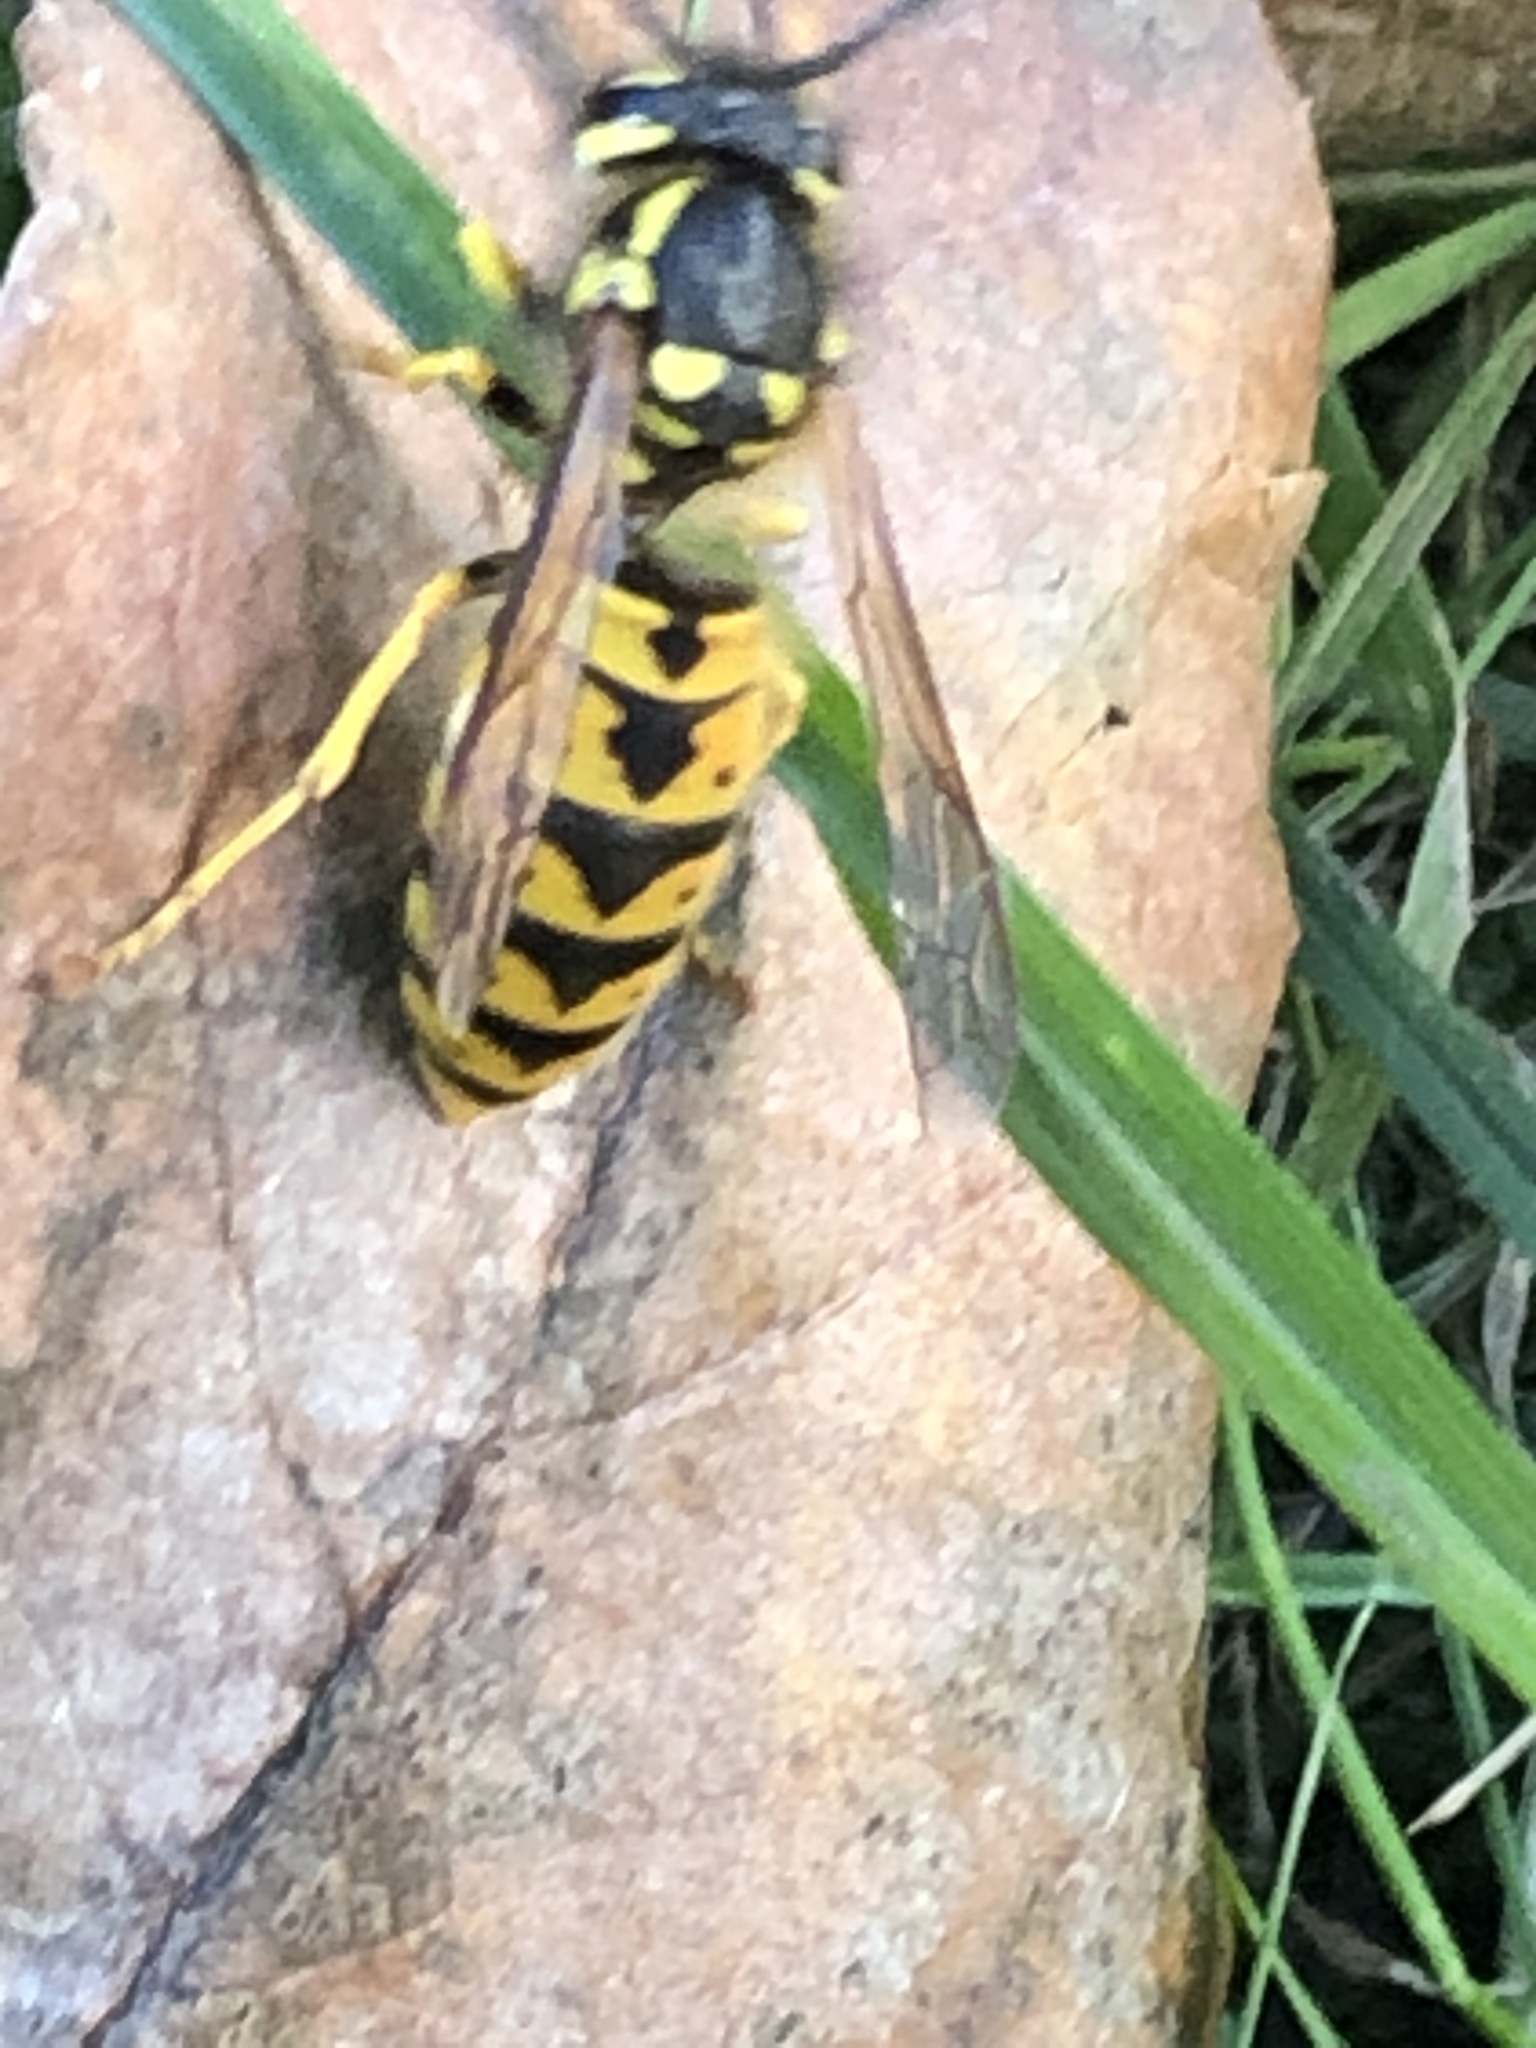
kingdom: Animalia
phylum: Arthropoda
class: Insecta
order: Hymenoptera
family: Vespidae
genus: Vespula
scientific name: Vespula germanica
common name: German wasp
